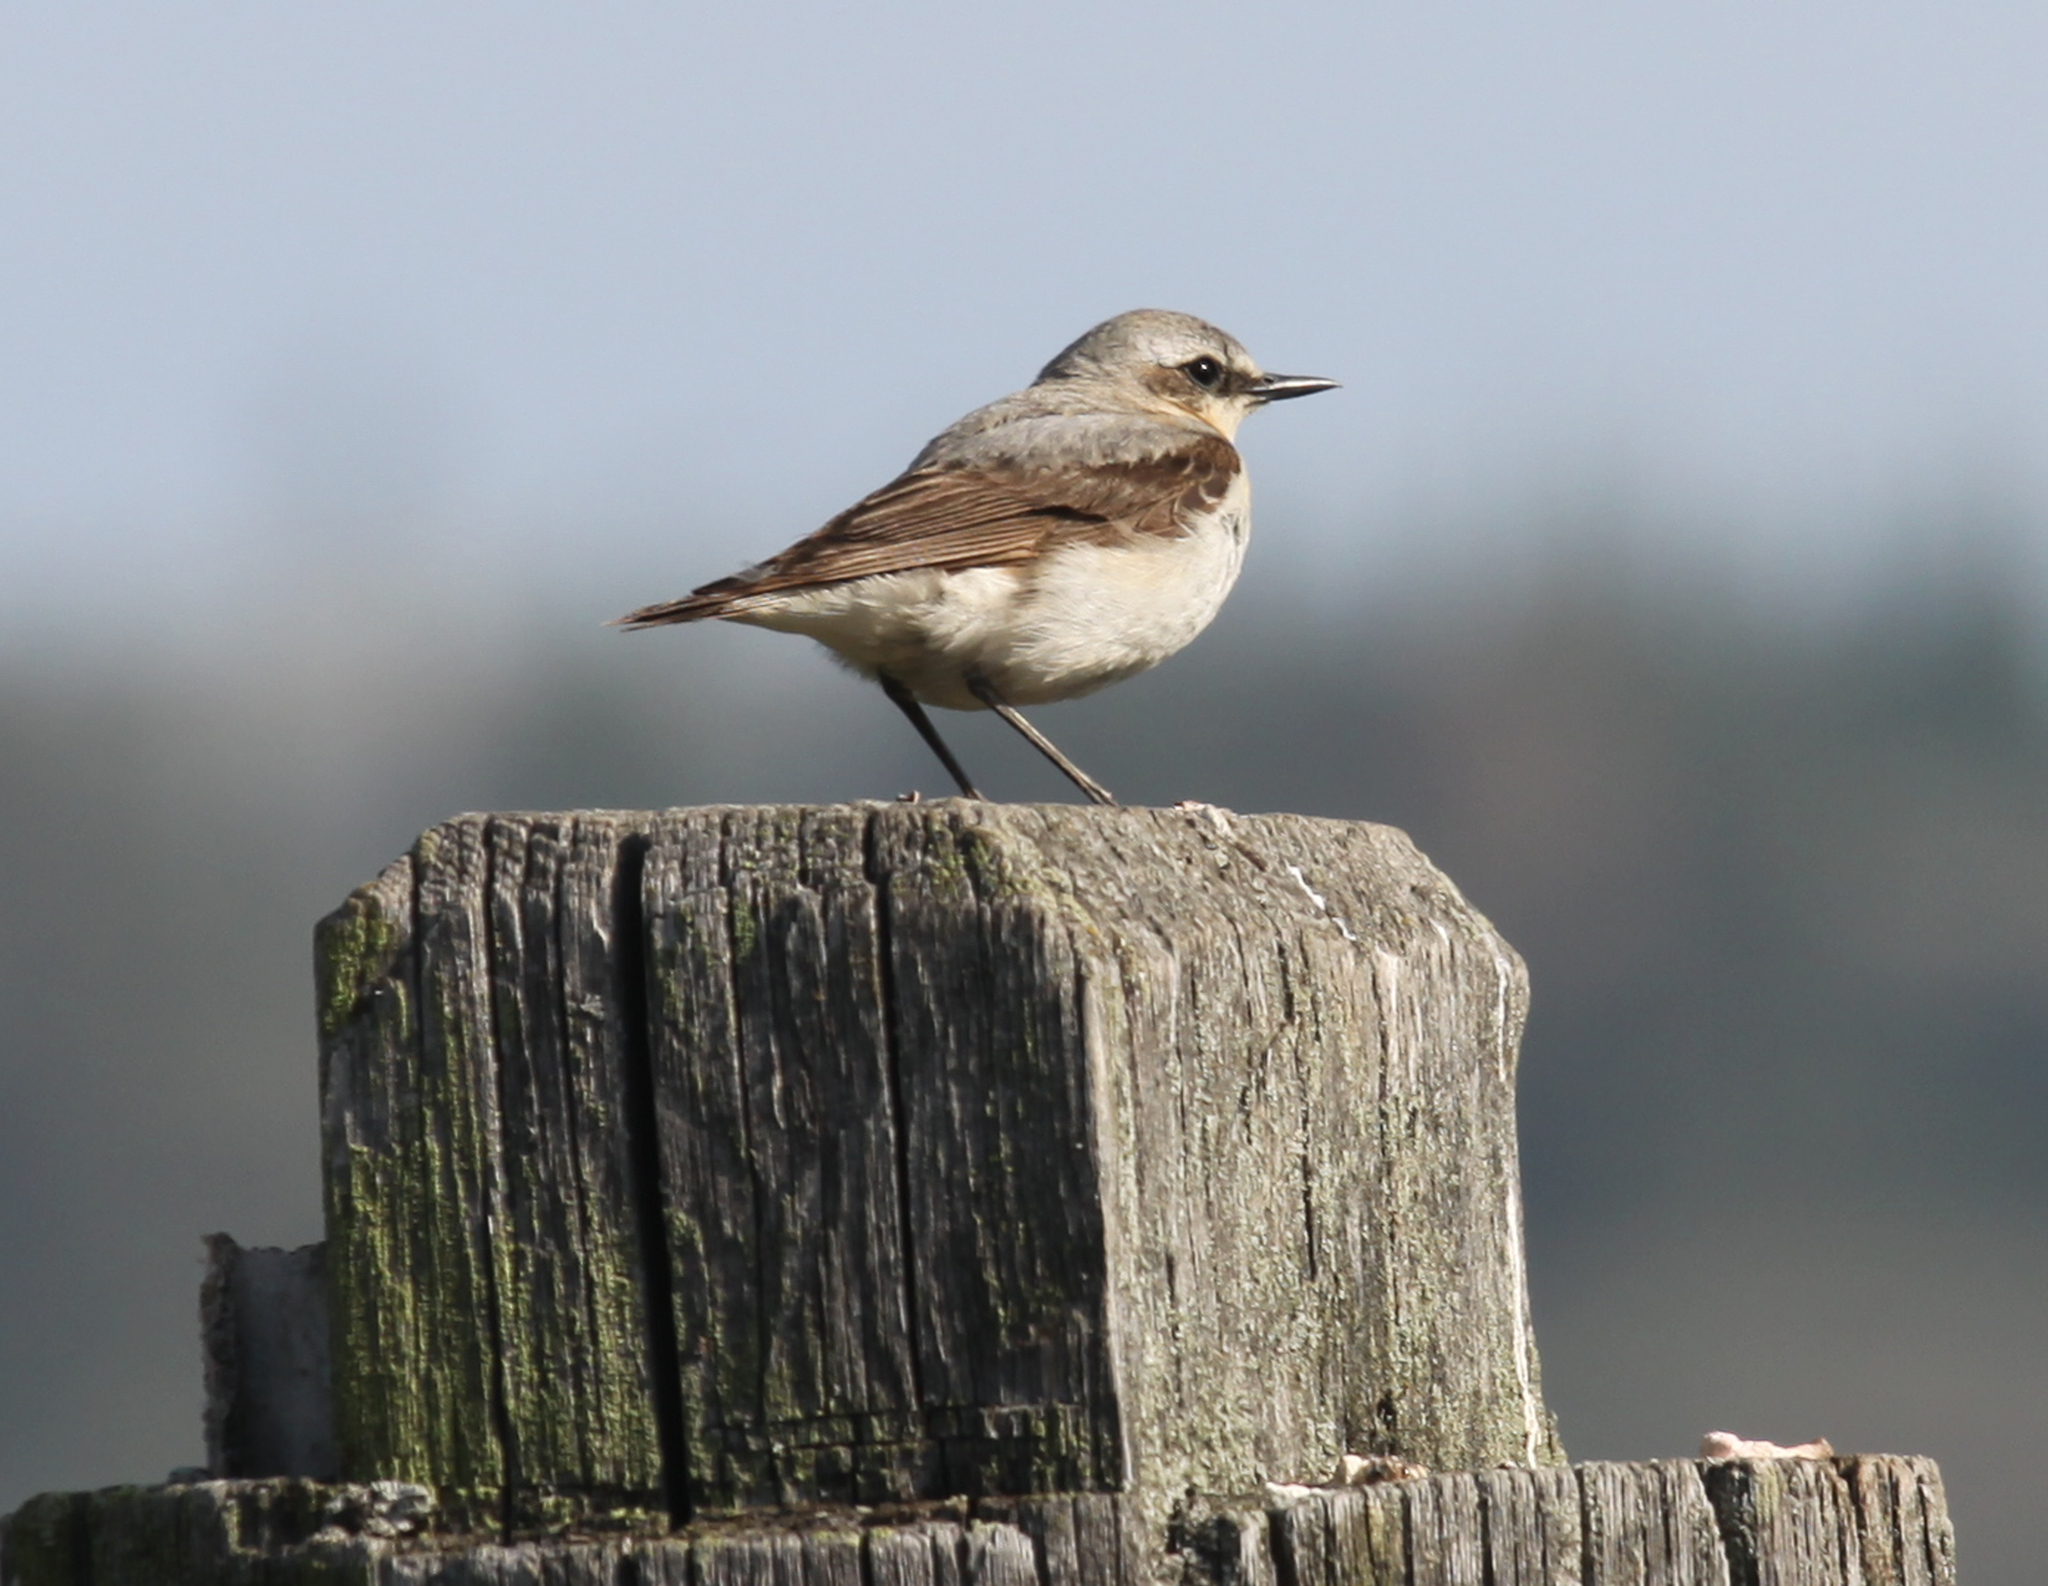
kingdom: Animalia
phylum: Chordata
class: Aves
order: Passeriformes
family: Muscicapidae
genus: Oenanthe
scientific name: Oenanthe oenanthe
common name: Northern wheatear
